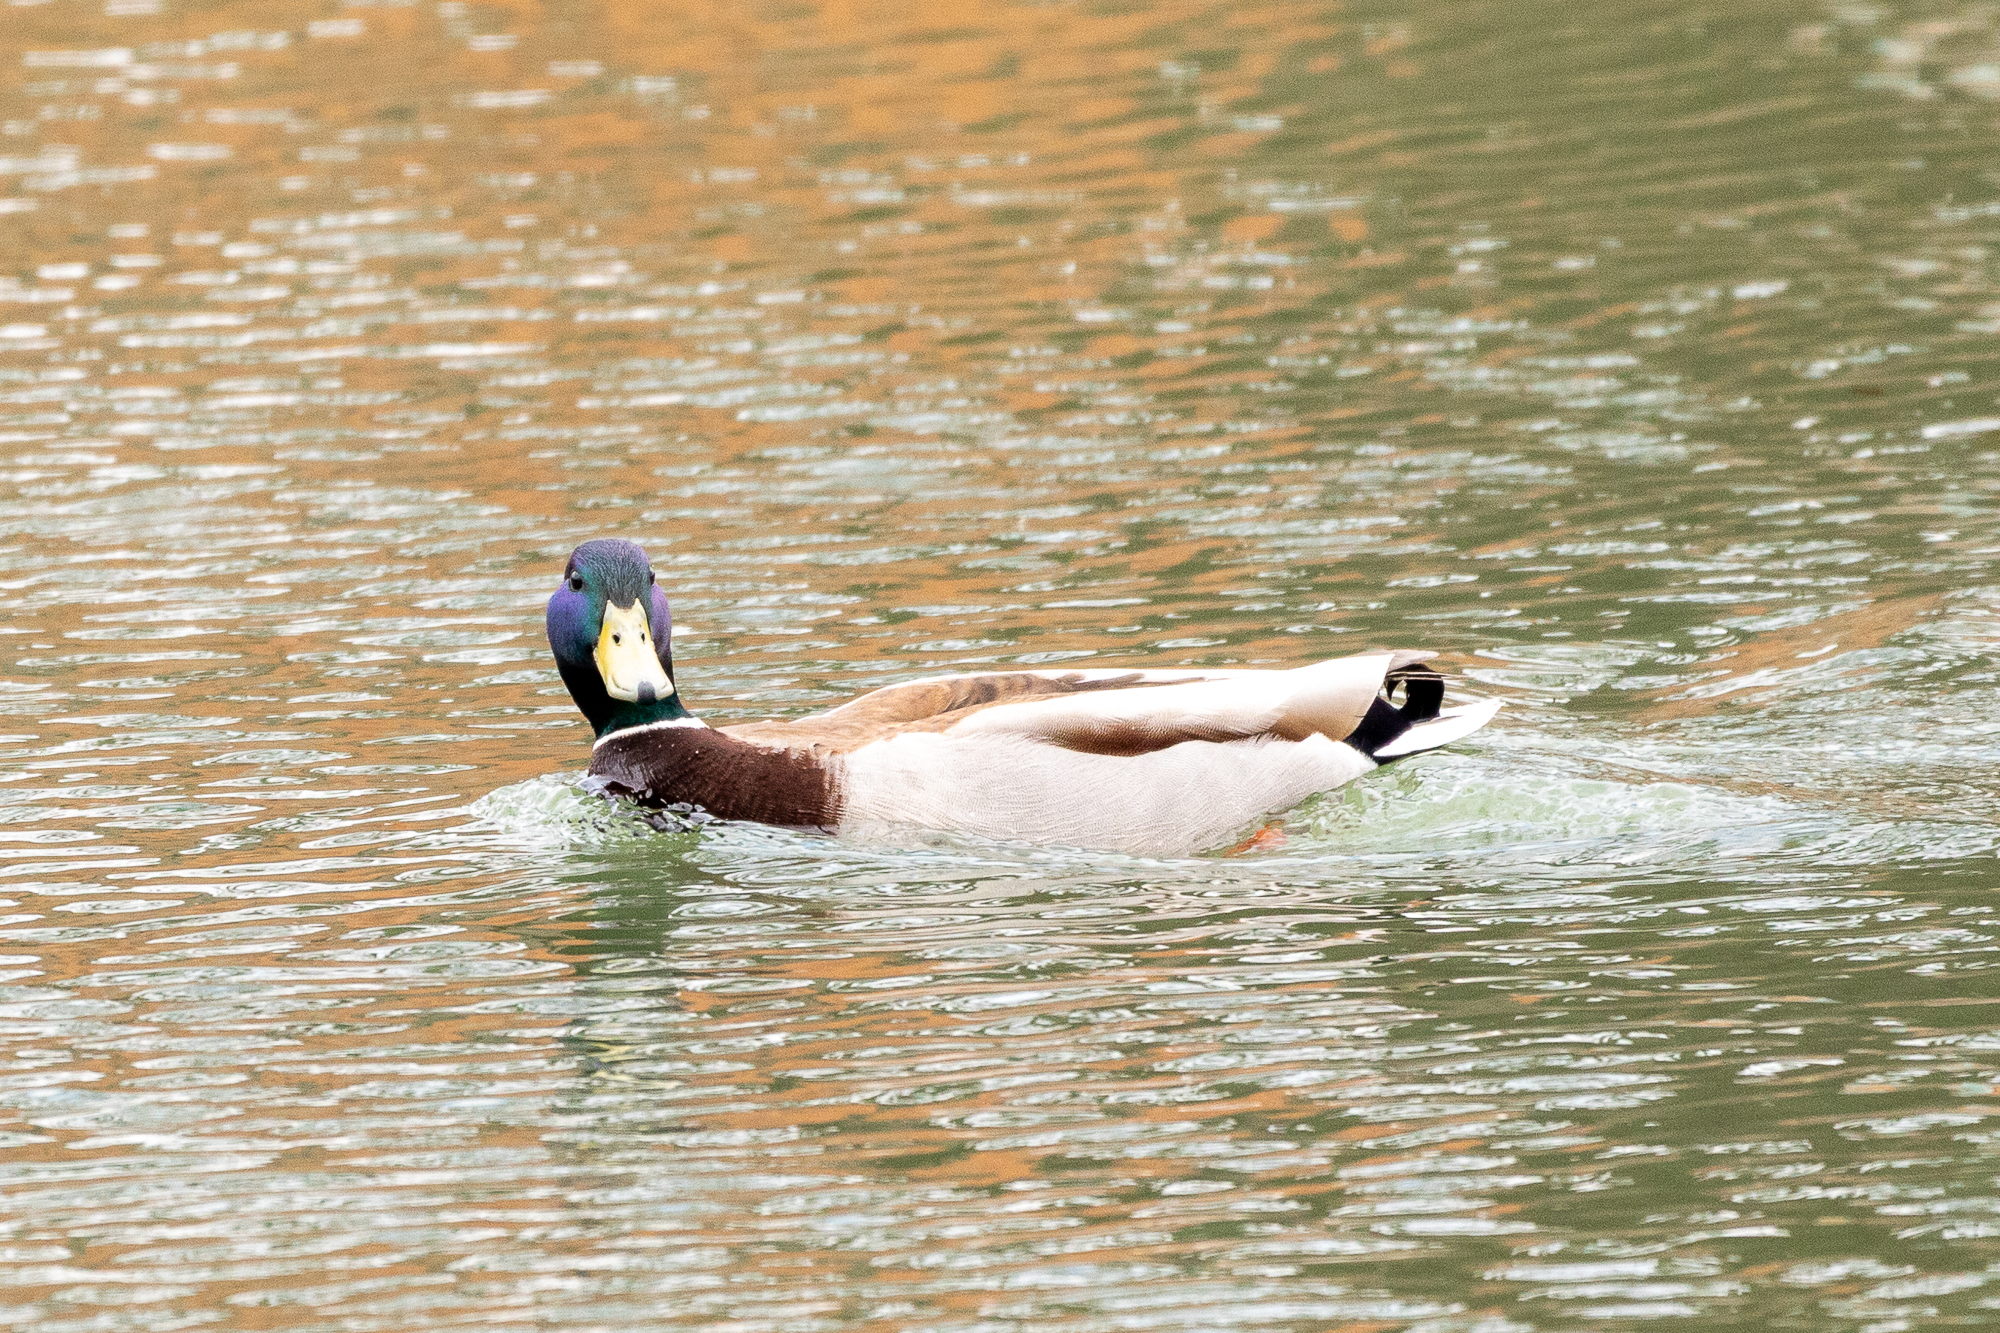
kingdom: Animalia
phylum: Chordata
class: Aves
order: Anseriformes
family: Anatidae
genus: Anas
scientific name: Anas platyrhynchos
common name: Mallard
